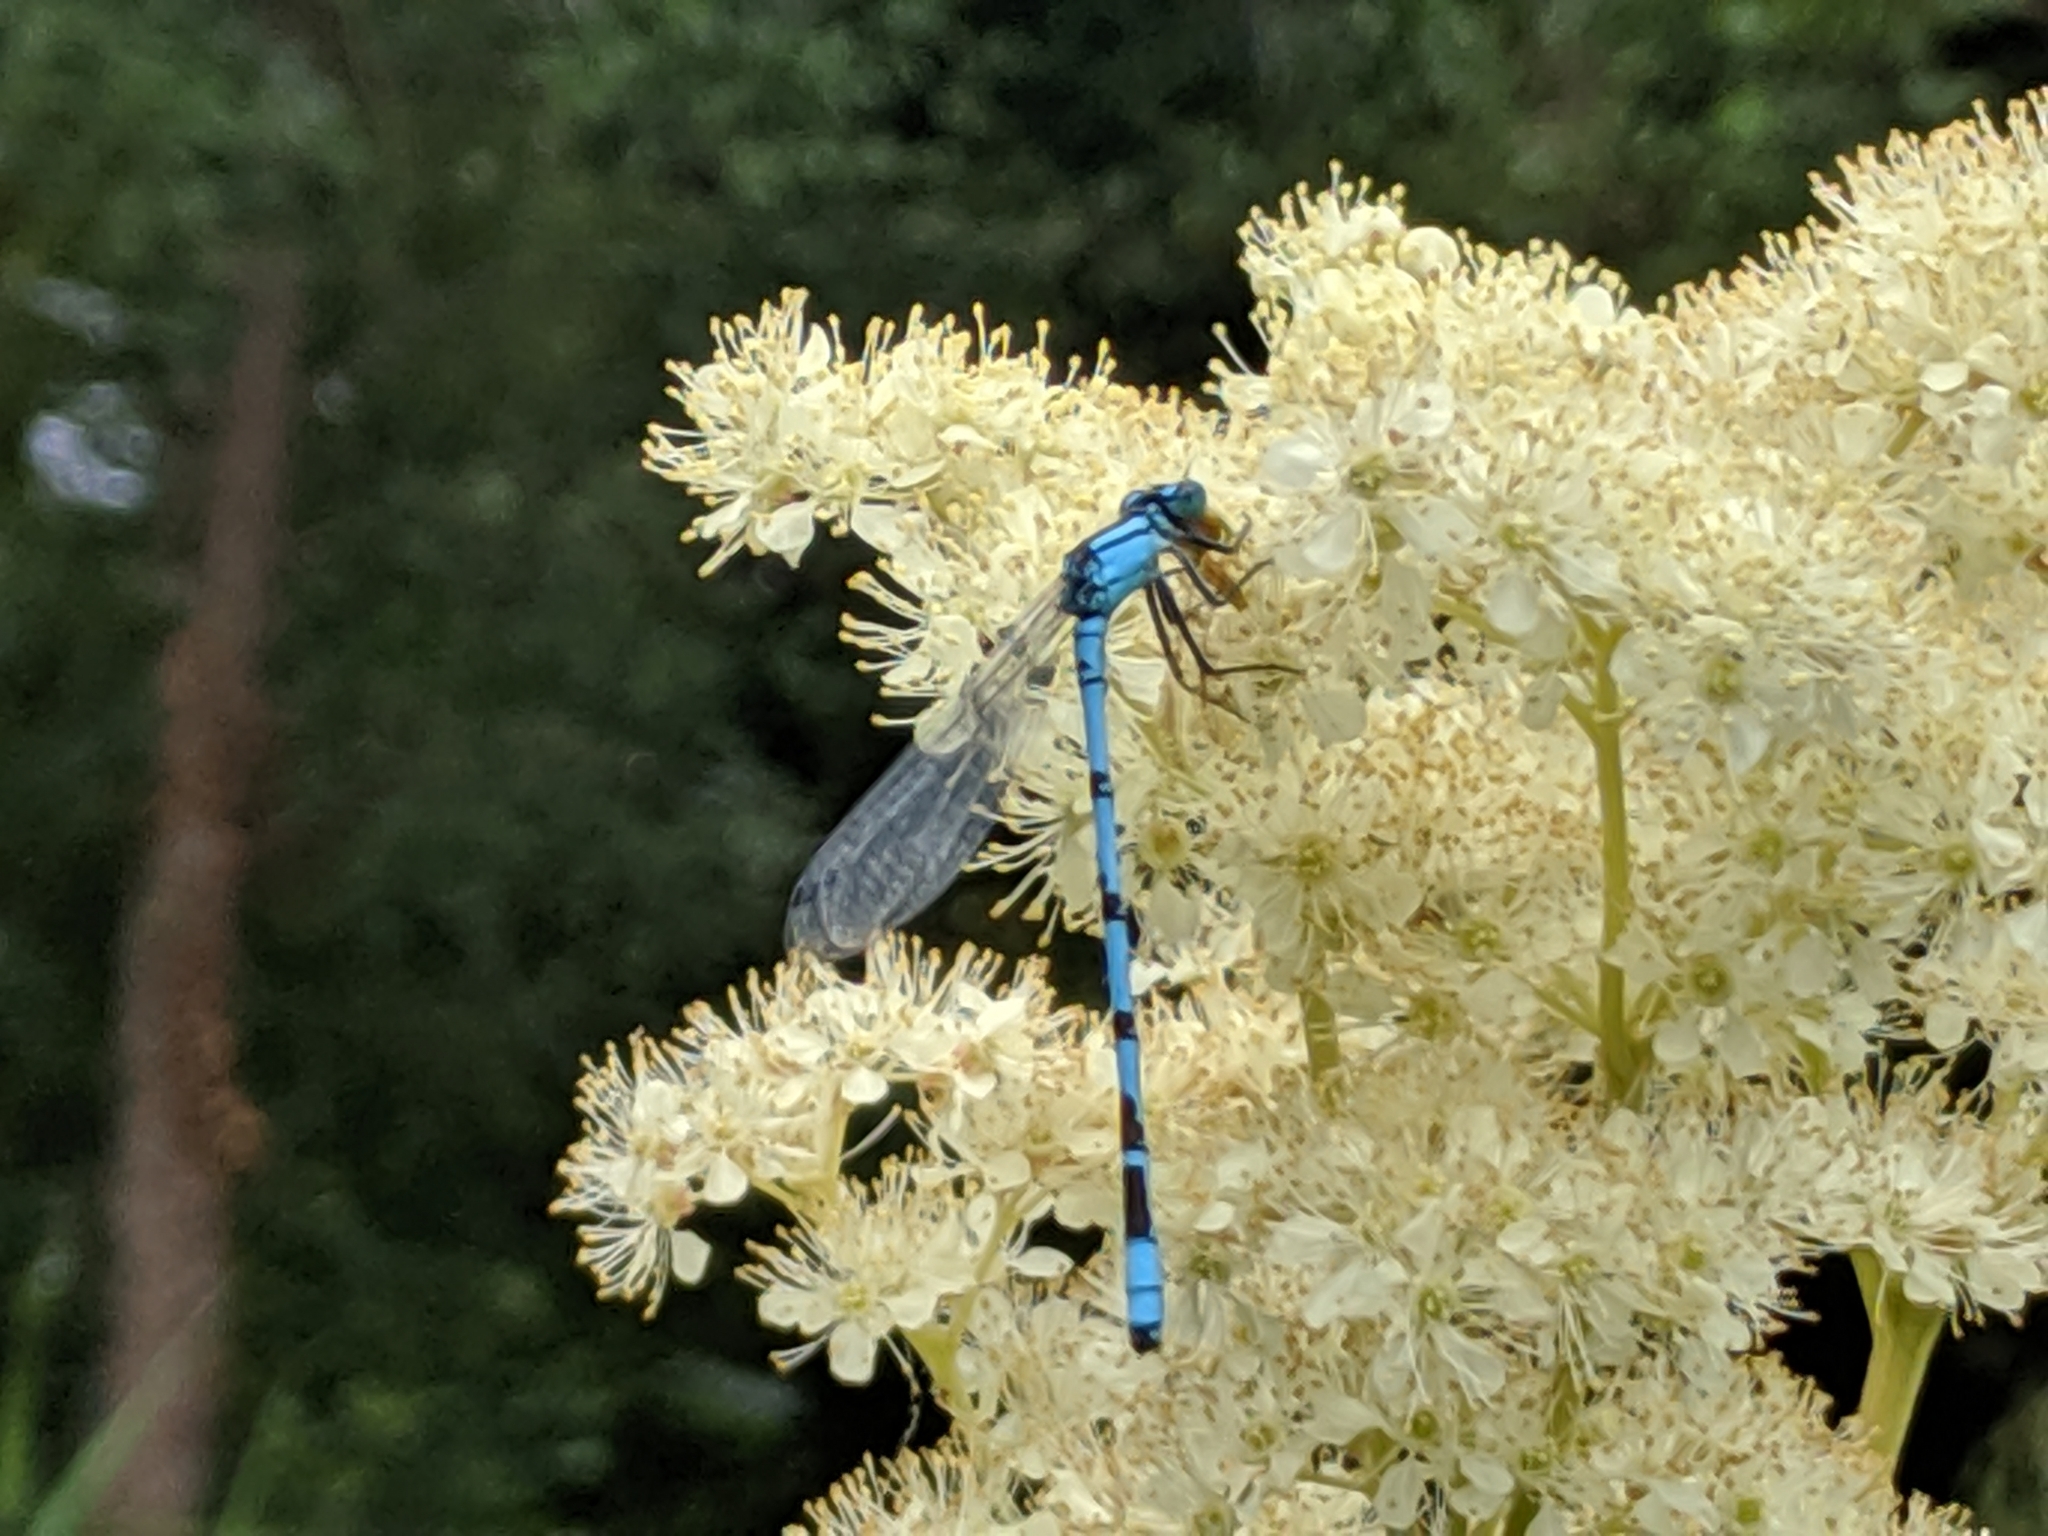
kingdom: Animalia
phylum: Arthropoda
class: Insecta
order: Odonata
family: Coenagrionidae
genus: Enallagma
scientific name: Enallagma cyathigerum
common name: Common blue damselfly
